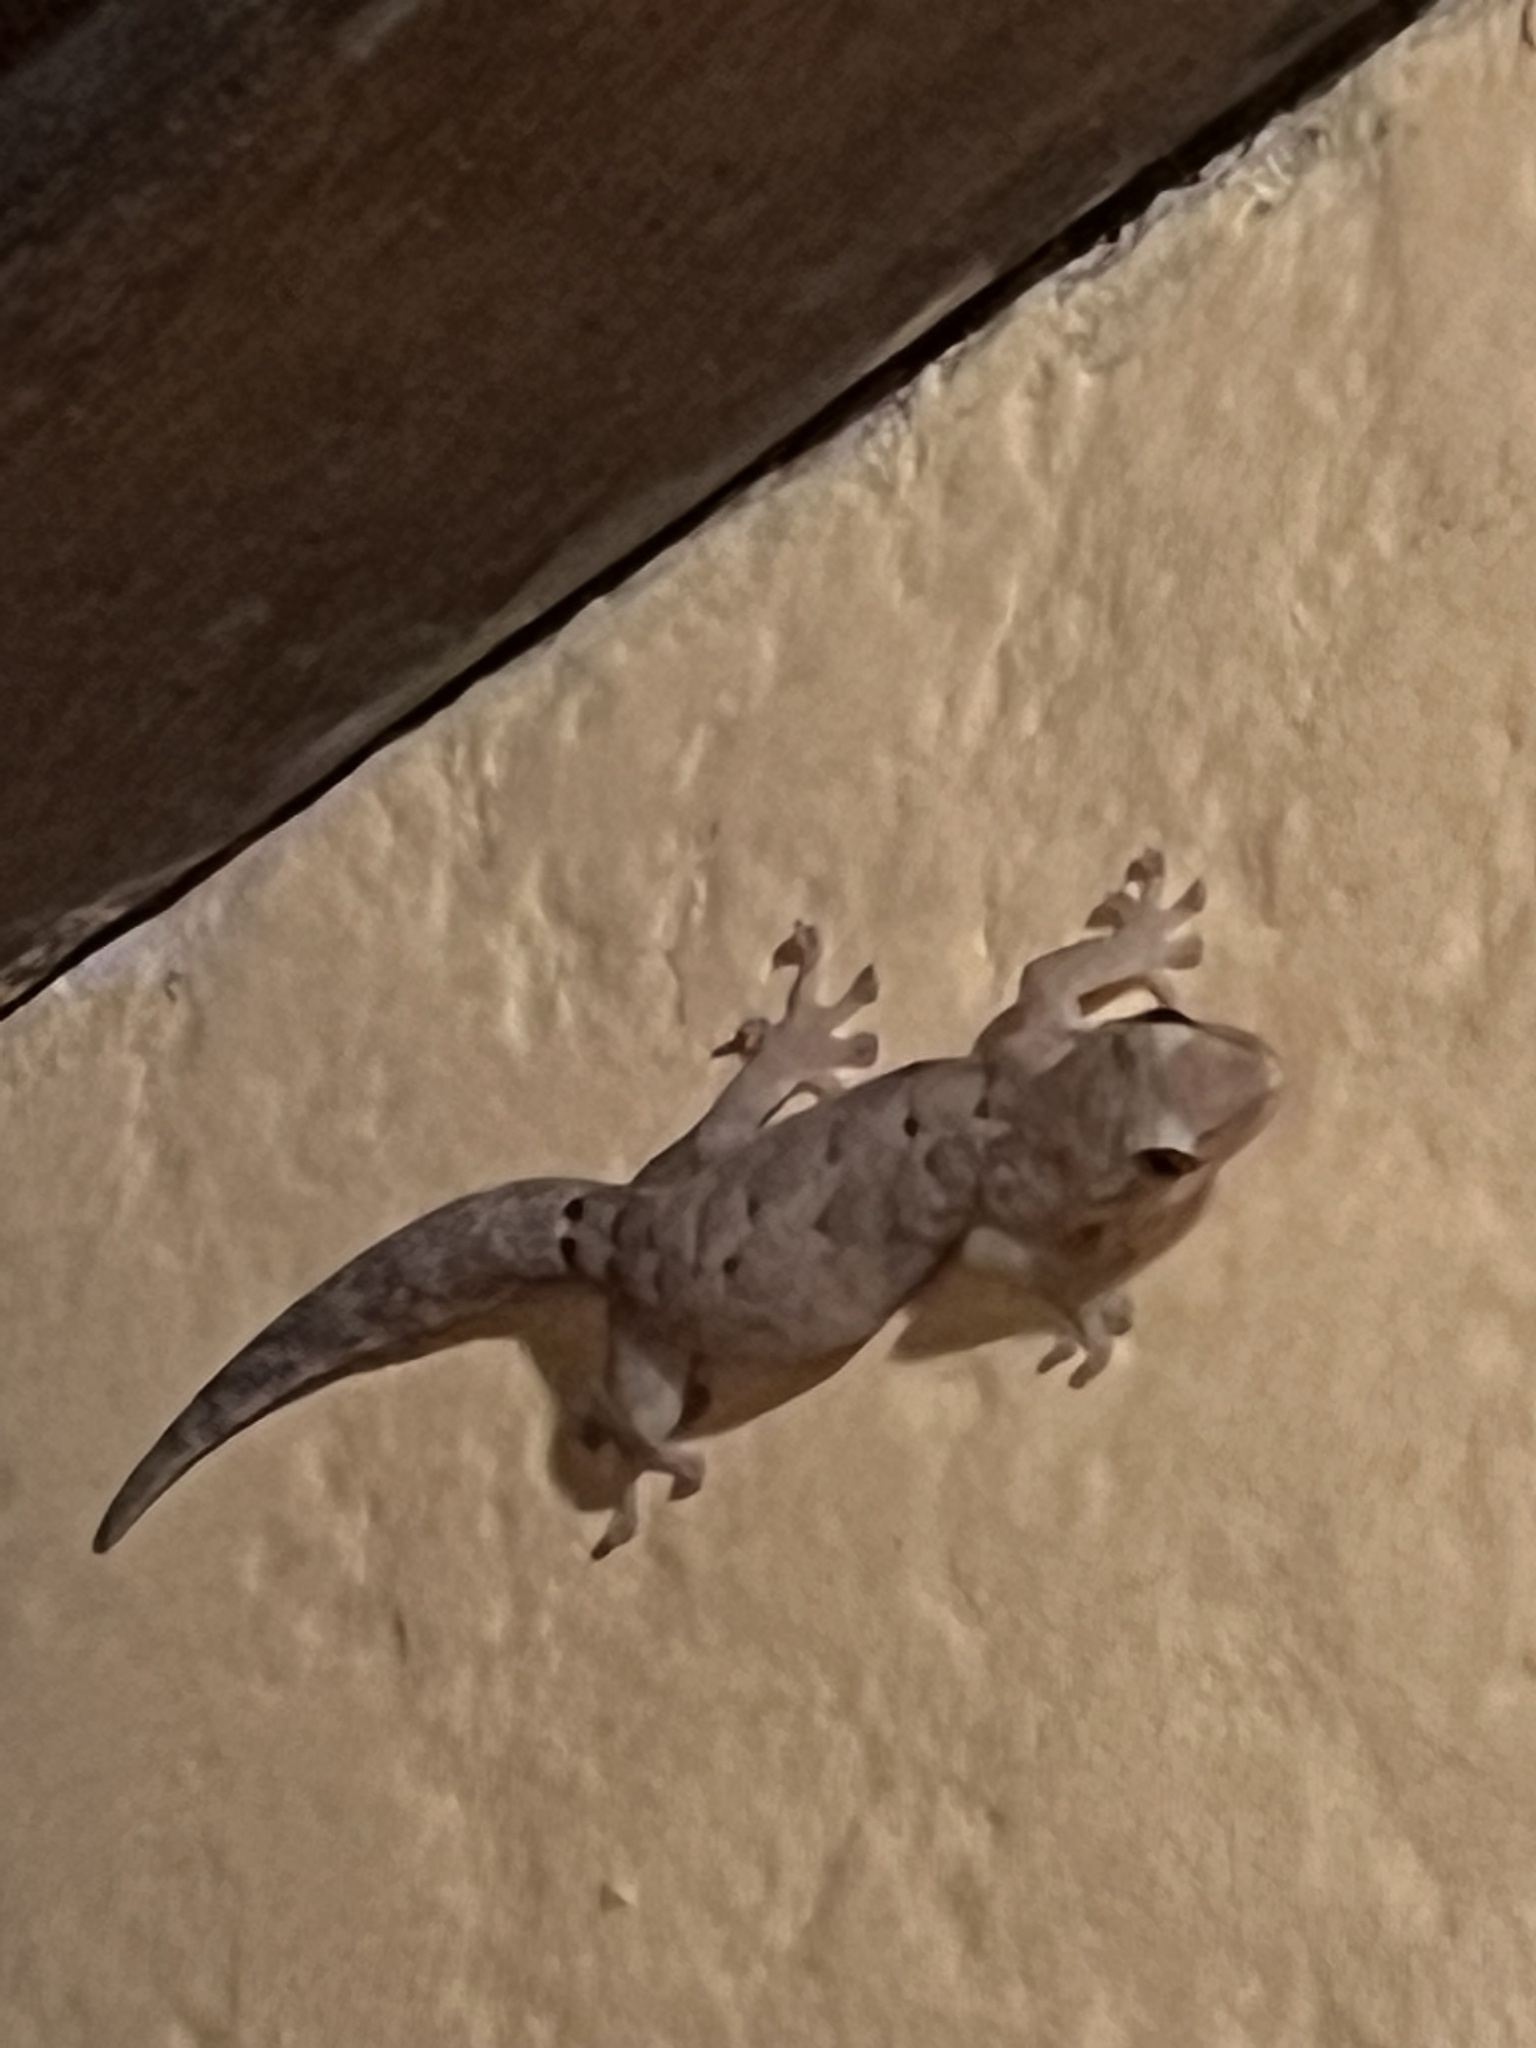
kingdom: Animalia
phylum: Chordata
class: Squamata
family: Gekkonidae
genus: Lepidodactylus
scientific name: Lepidodactylus lugubris
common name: Mourning gecko
